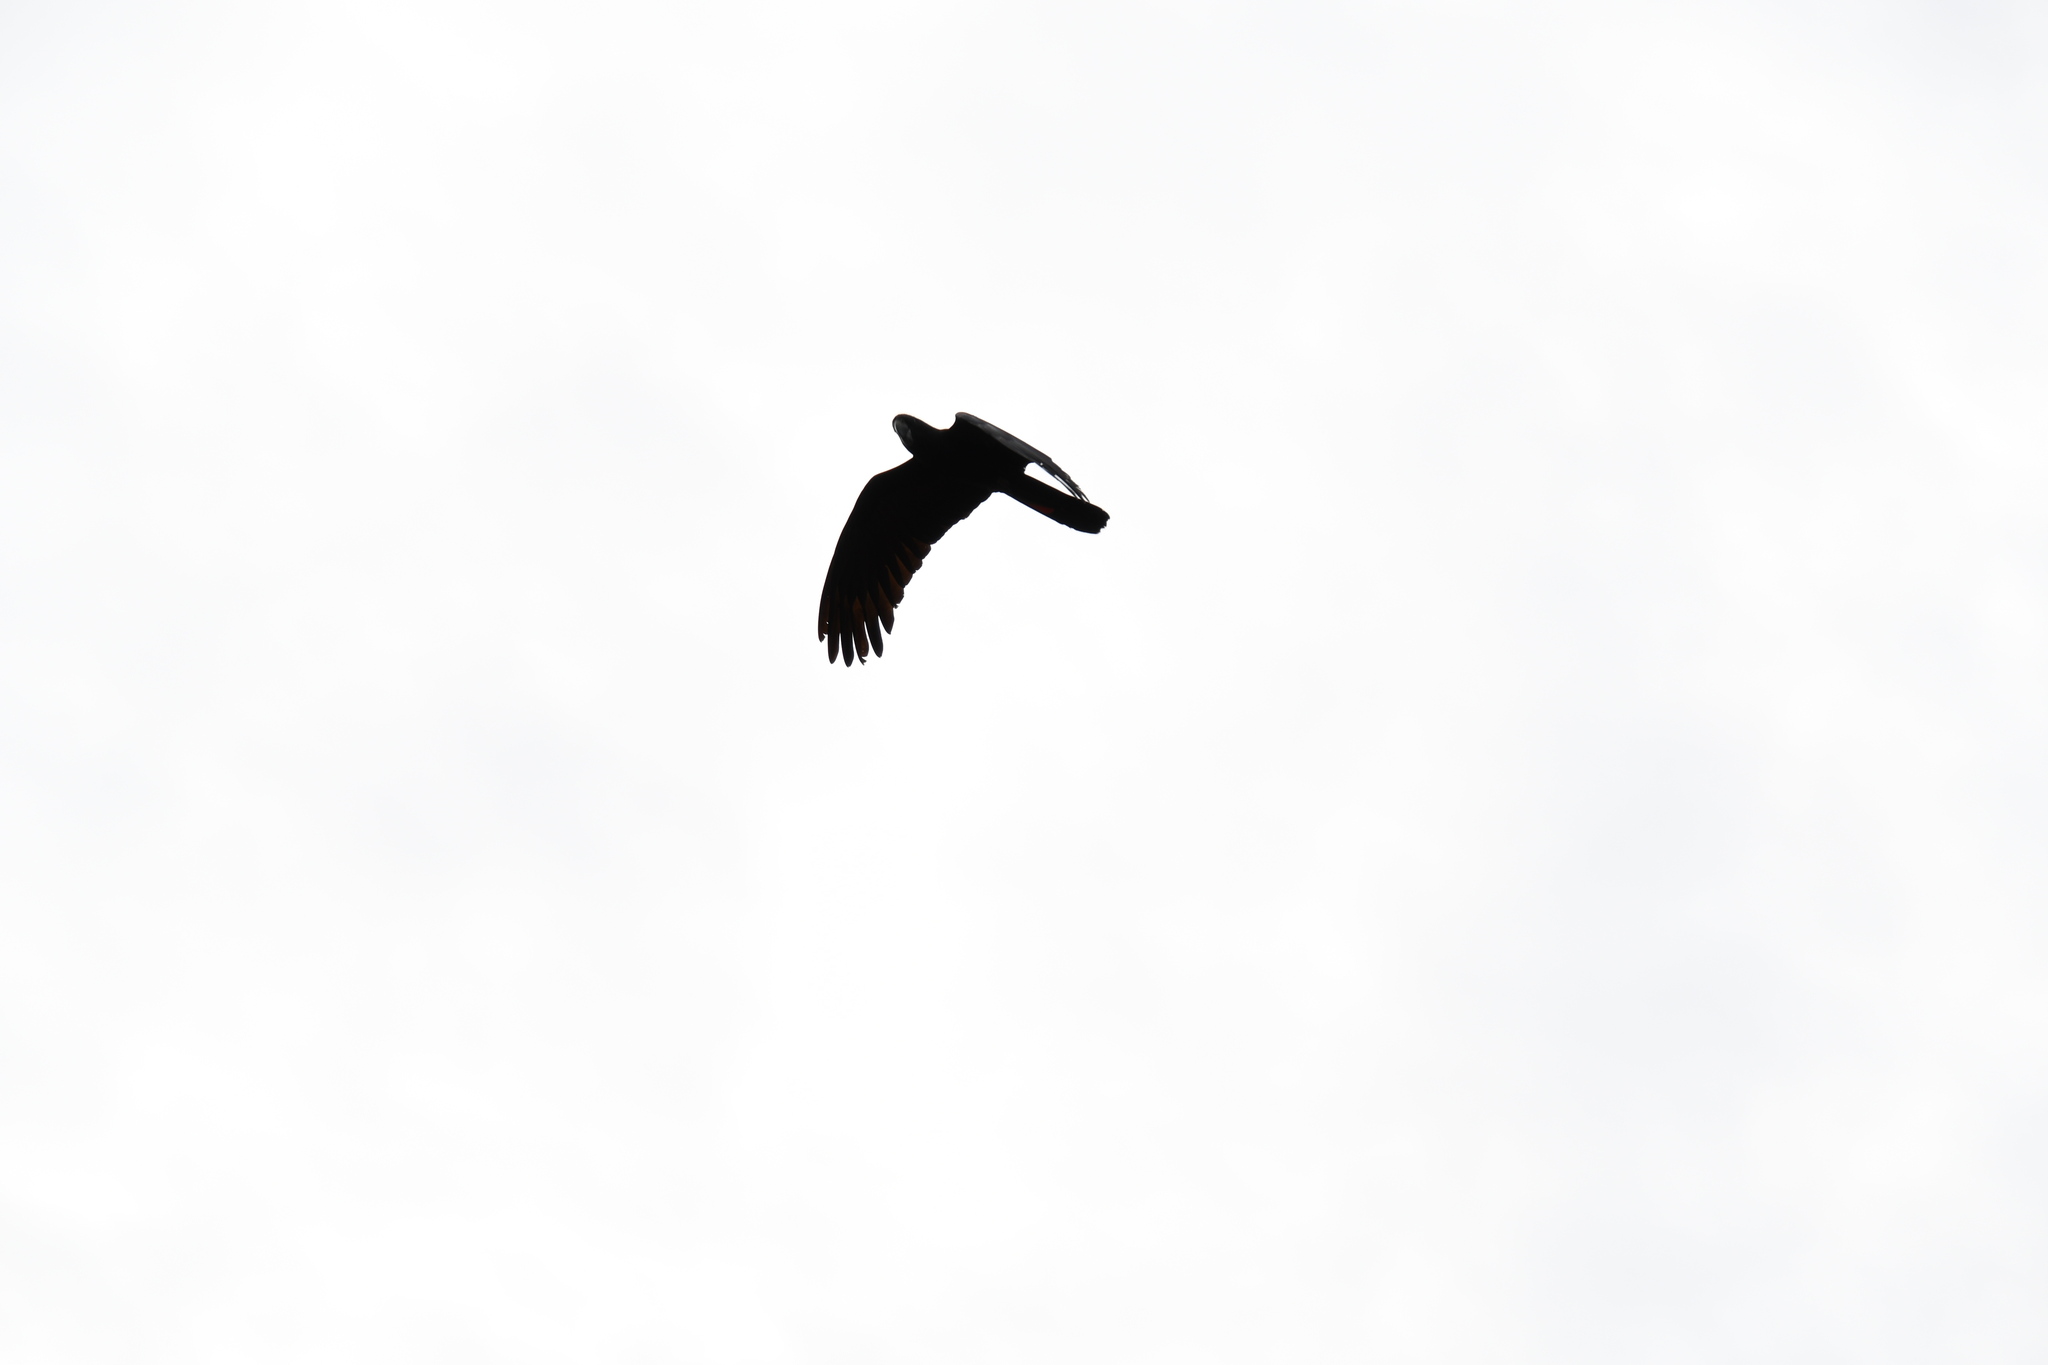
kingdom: Animalia
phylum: Chordata
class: Aves
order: Psittaciformes
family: Psittacidae
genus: Calyptorhynchus
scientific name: Calyptorhynchus banksii
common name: Red-tailed black cockatoo
